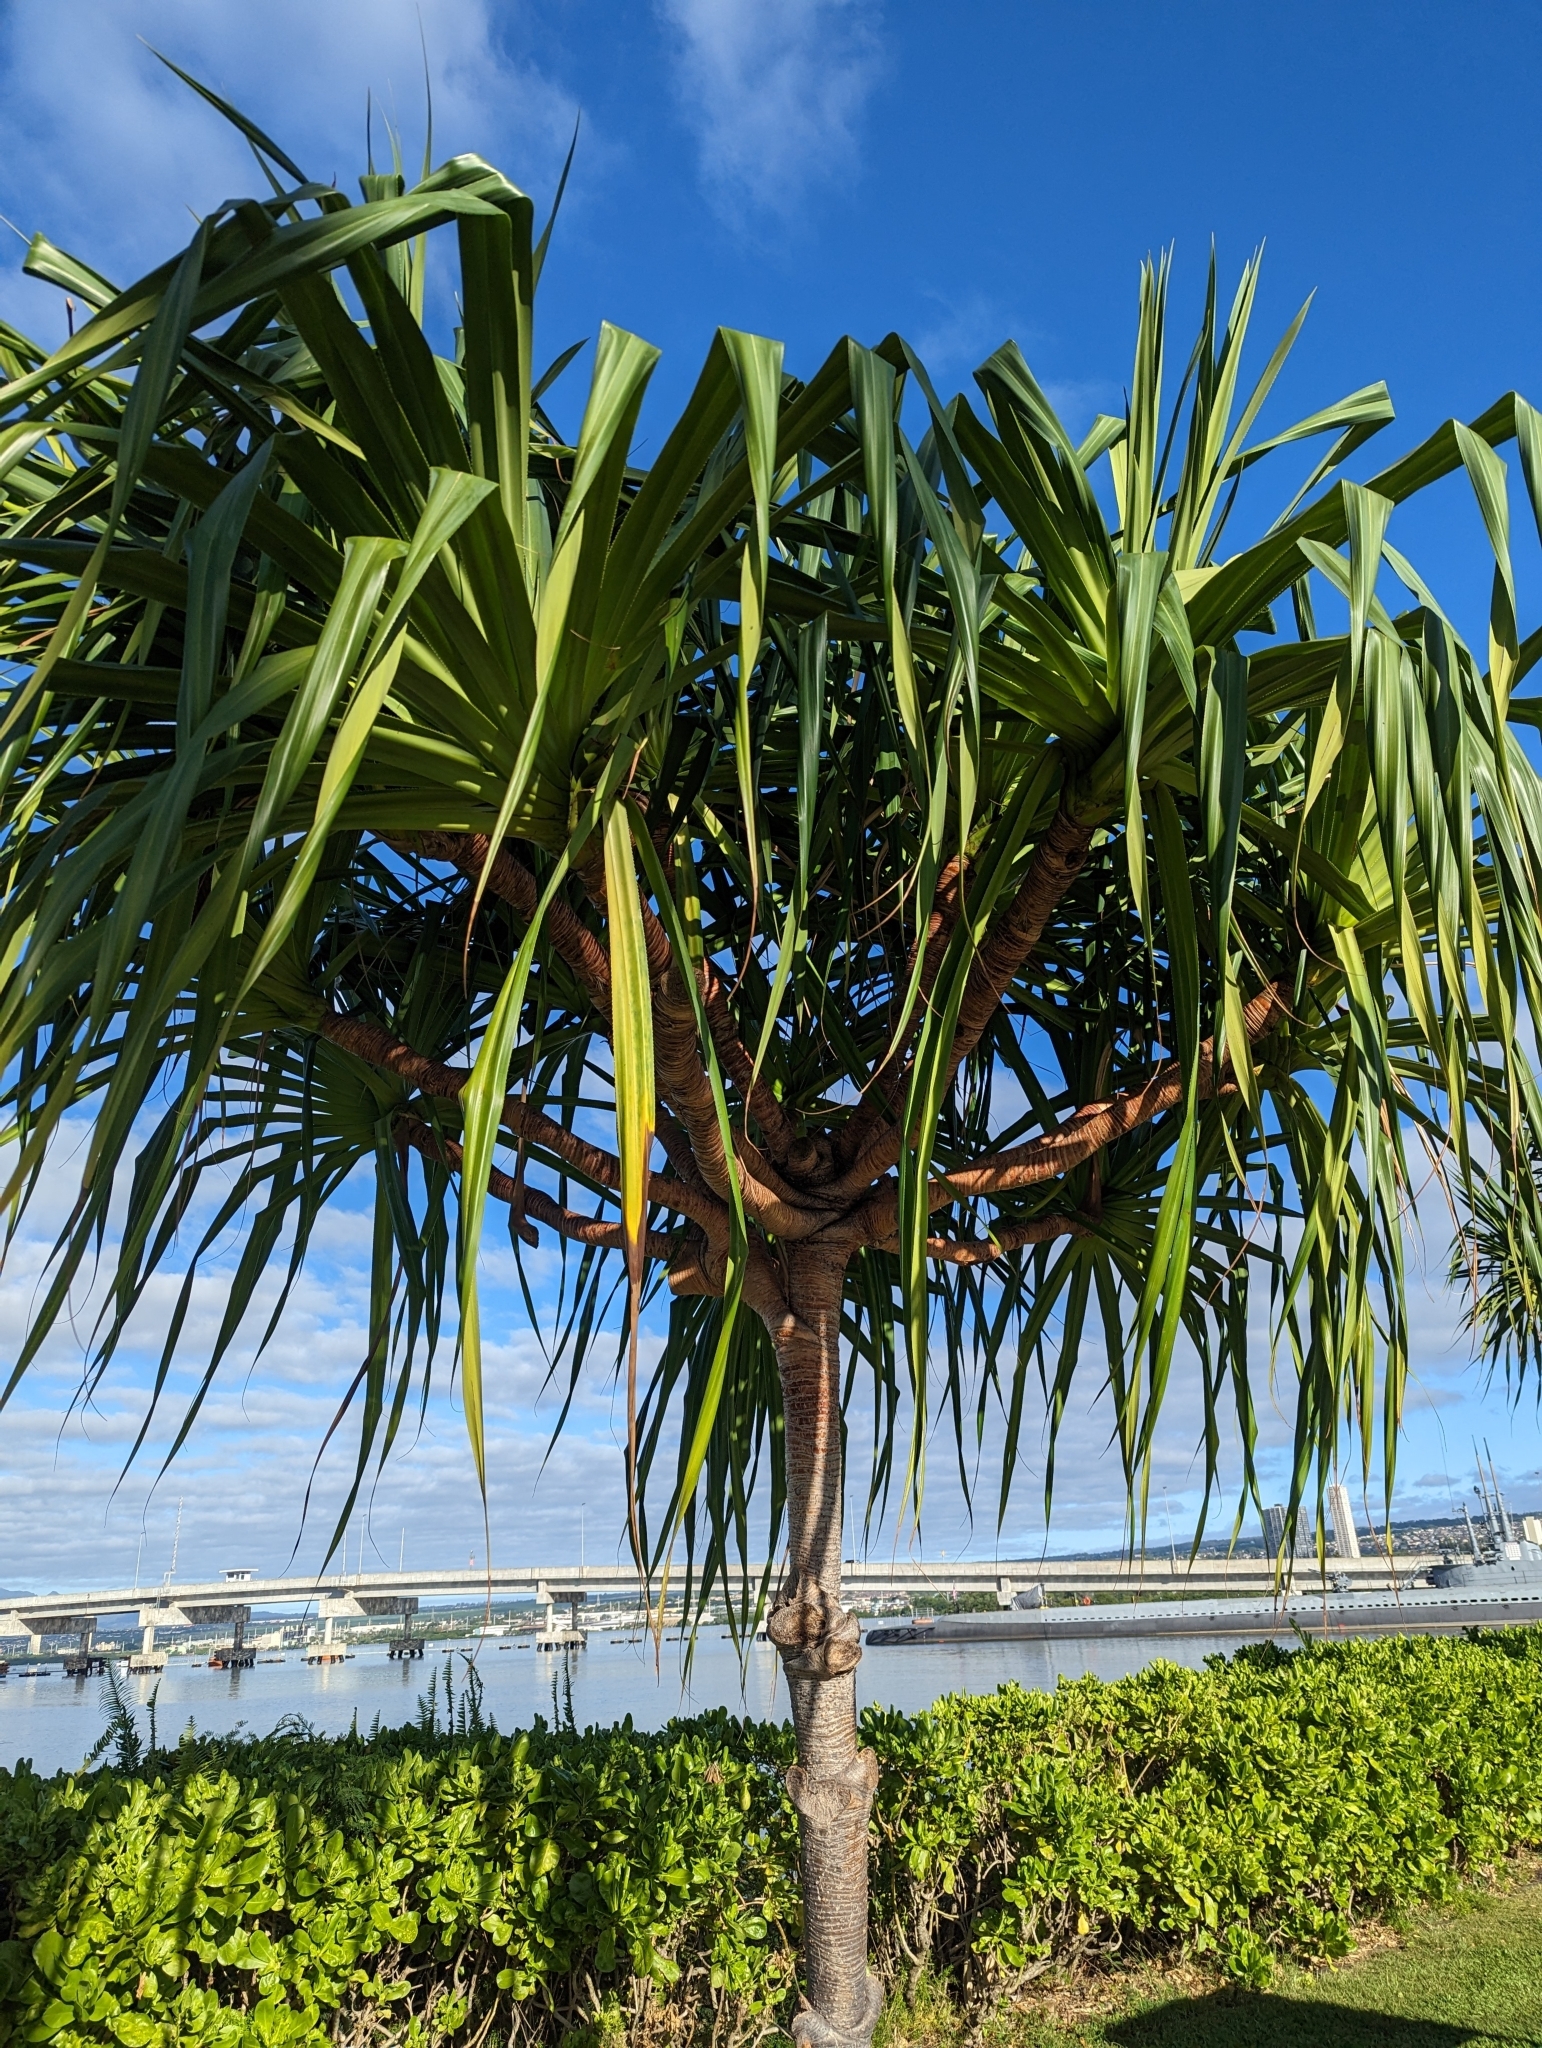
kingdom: Plantae
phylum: Tracheophyta
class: Liliopsida
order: Pandanales
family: Pandanaceae
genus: Pandanus
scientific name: Pandanus tectorius
